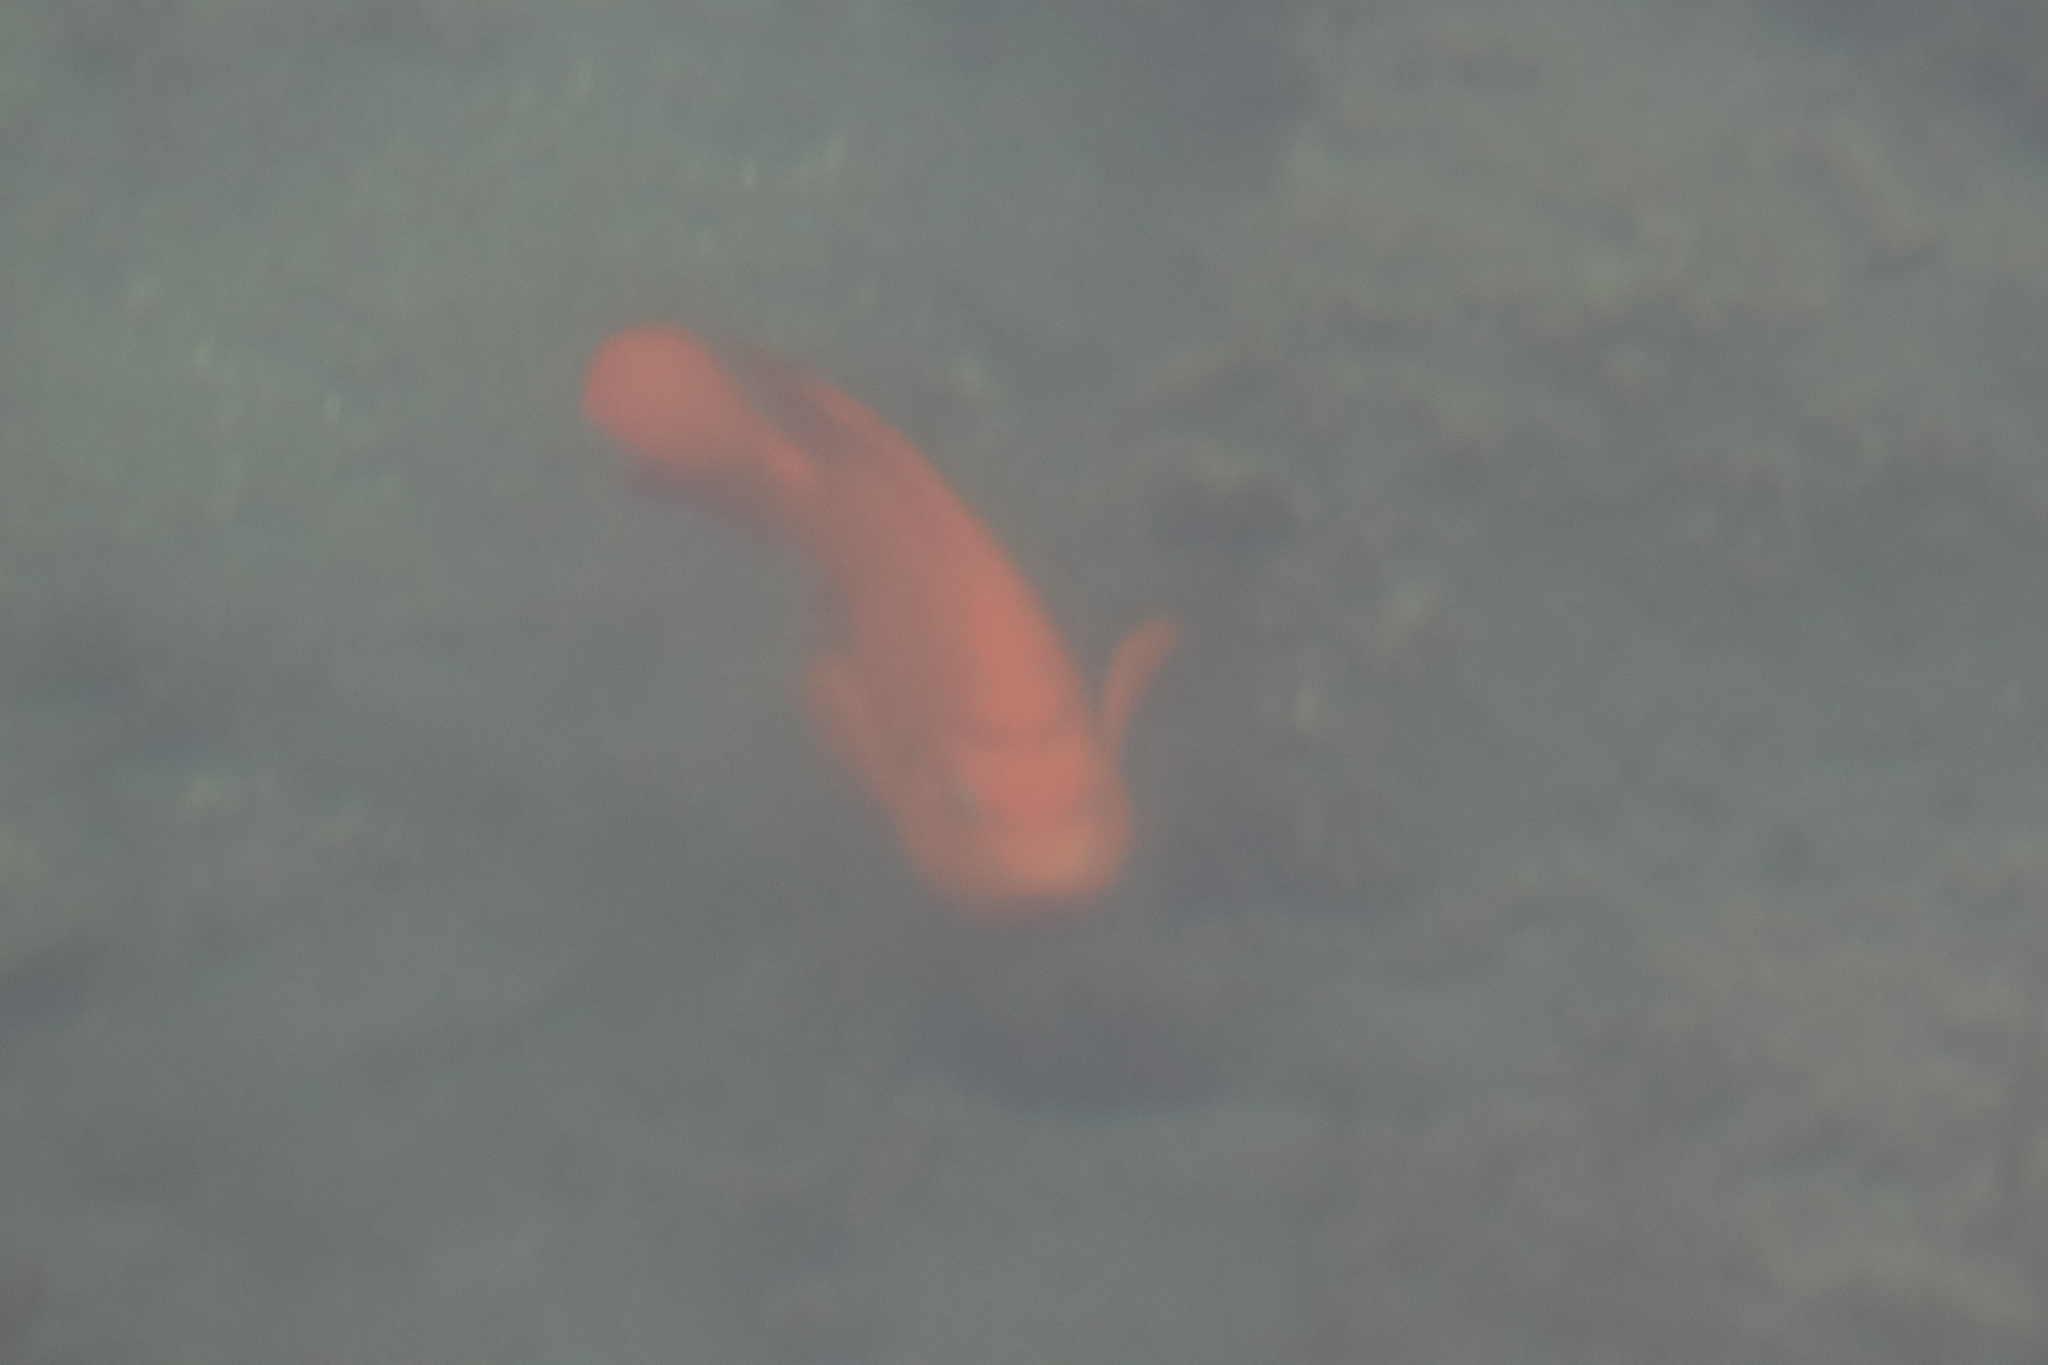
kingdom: Animalia
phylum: Chordata
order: Perciformes
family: Pomacentridae
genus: Hypsypops
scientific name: Hypsypops rubicundus
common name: Garibaldi
